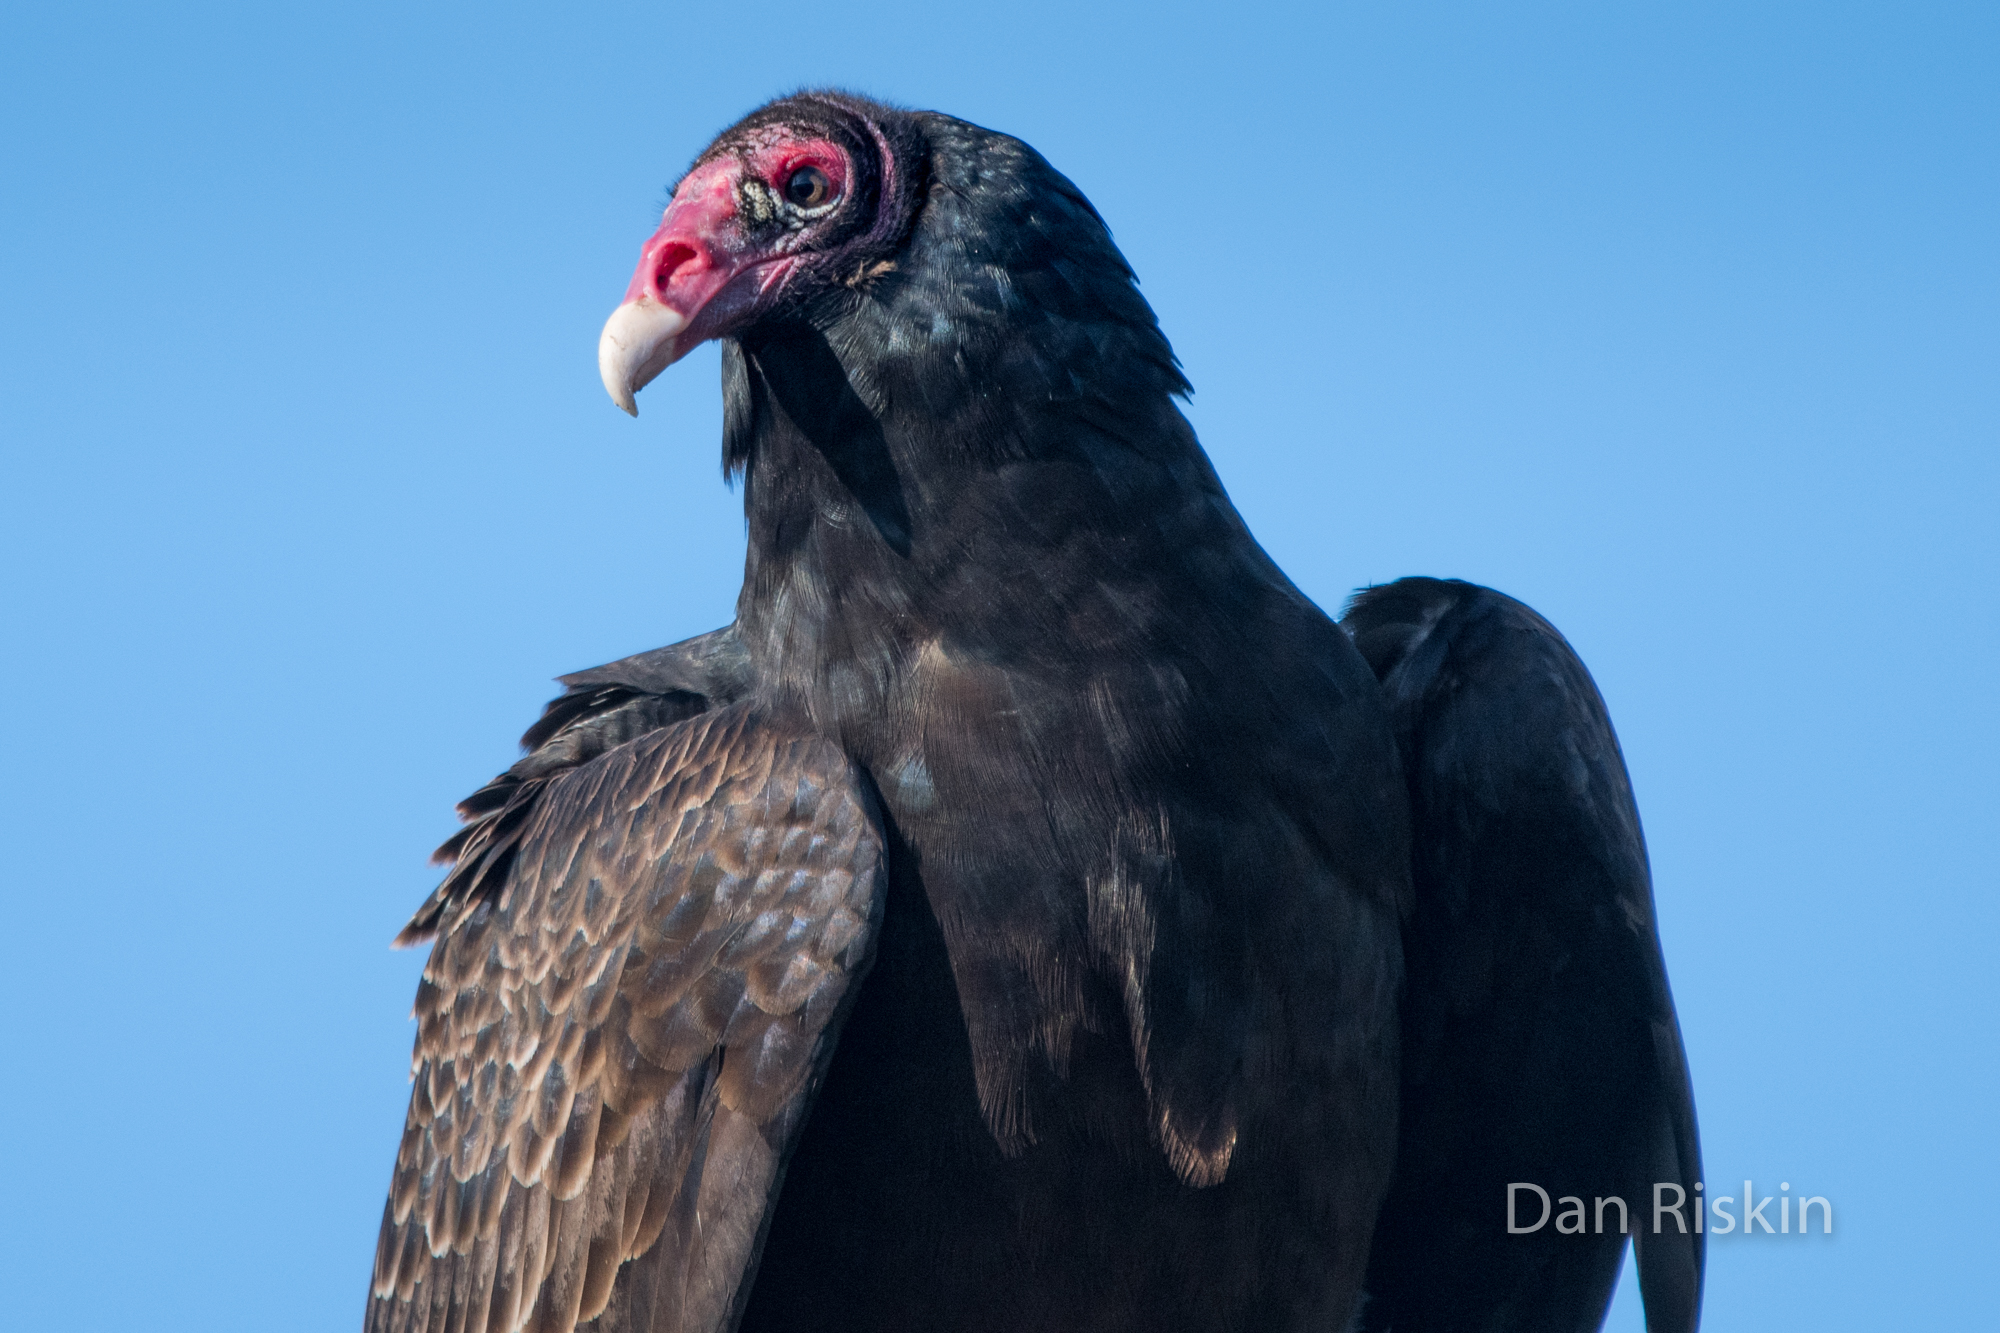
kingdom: Animalia
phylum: Chordata
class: Aves
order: Accipitriformes
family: Cathartidae
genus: Cathartes
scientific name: Cathartes aura
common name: Turkey vulture
